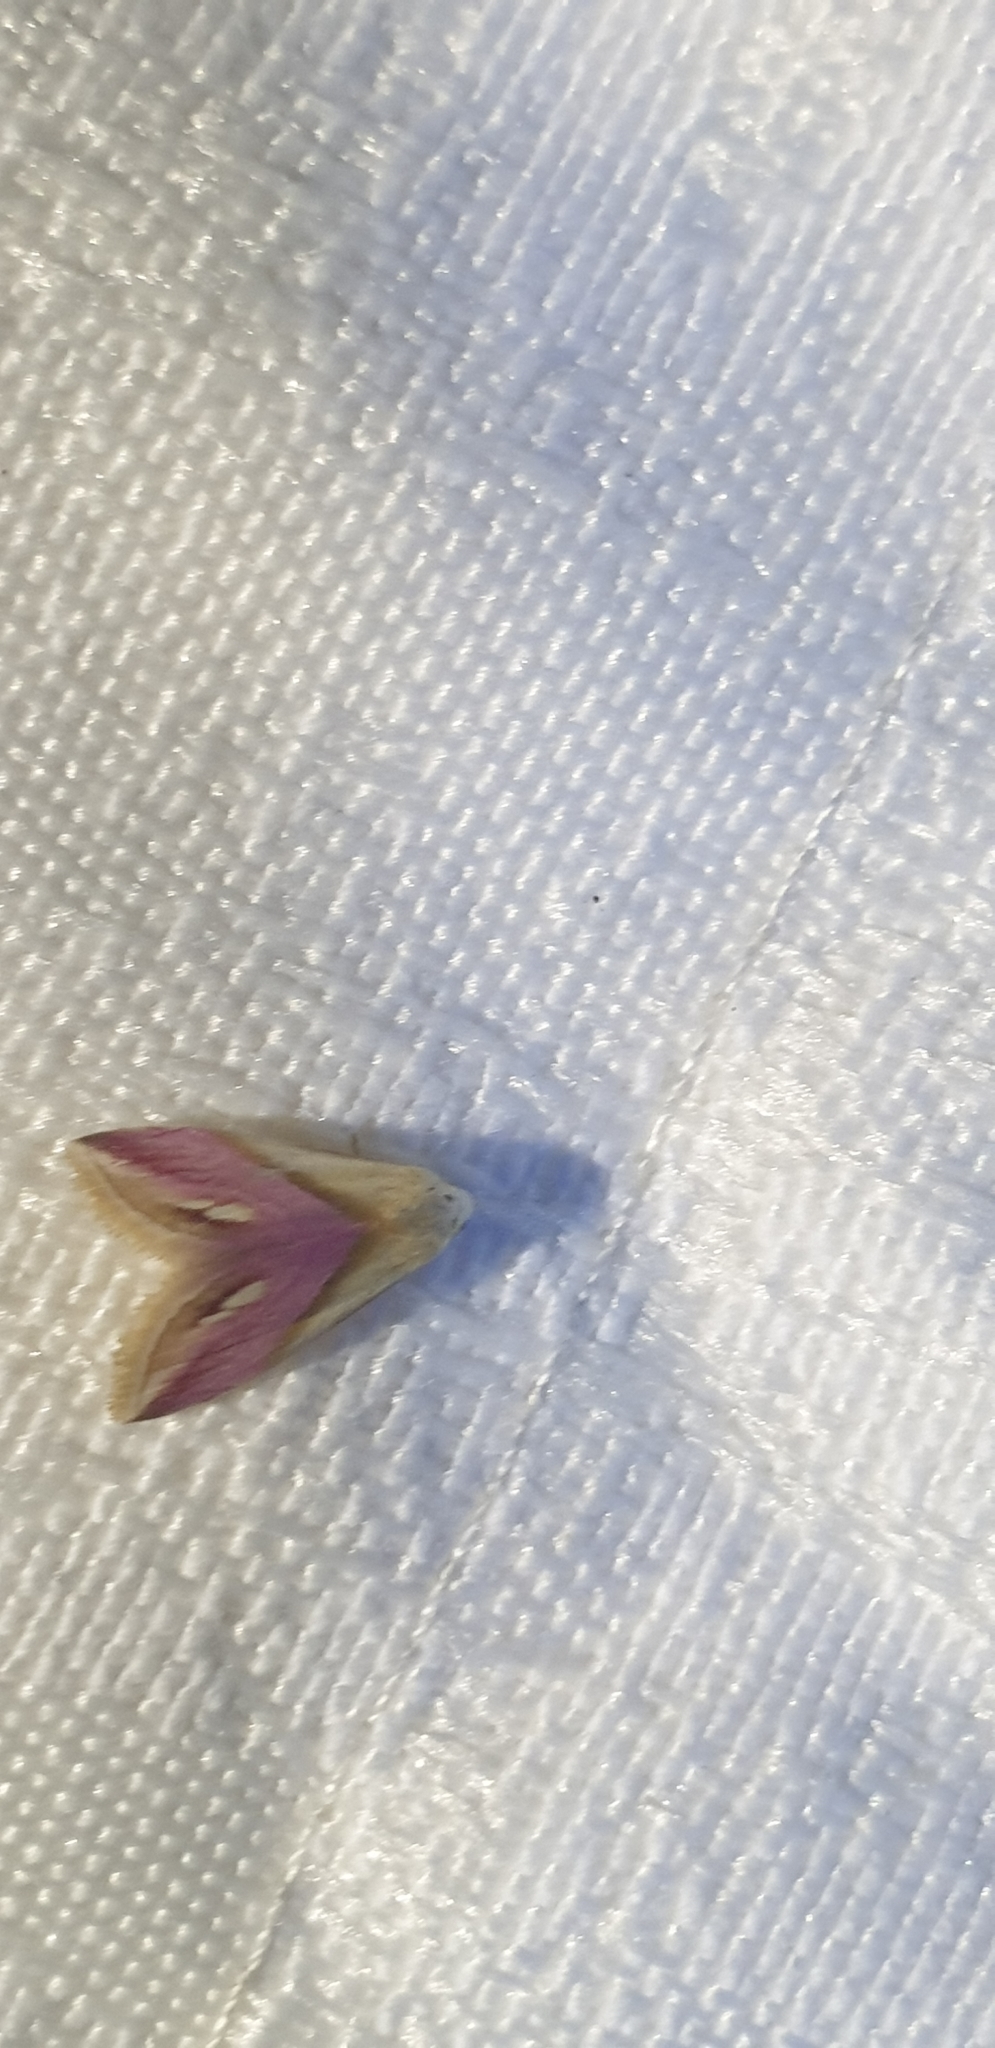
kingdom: Animalia
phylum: Arthropoda
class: Insecta
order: Lepidoptera
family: Noctuidae
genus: Eublemma
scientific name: Eublemma cochylioides
